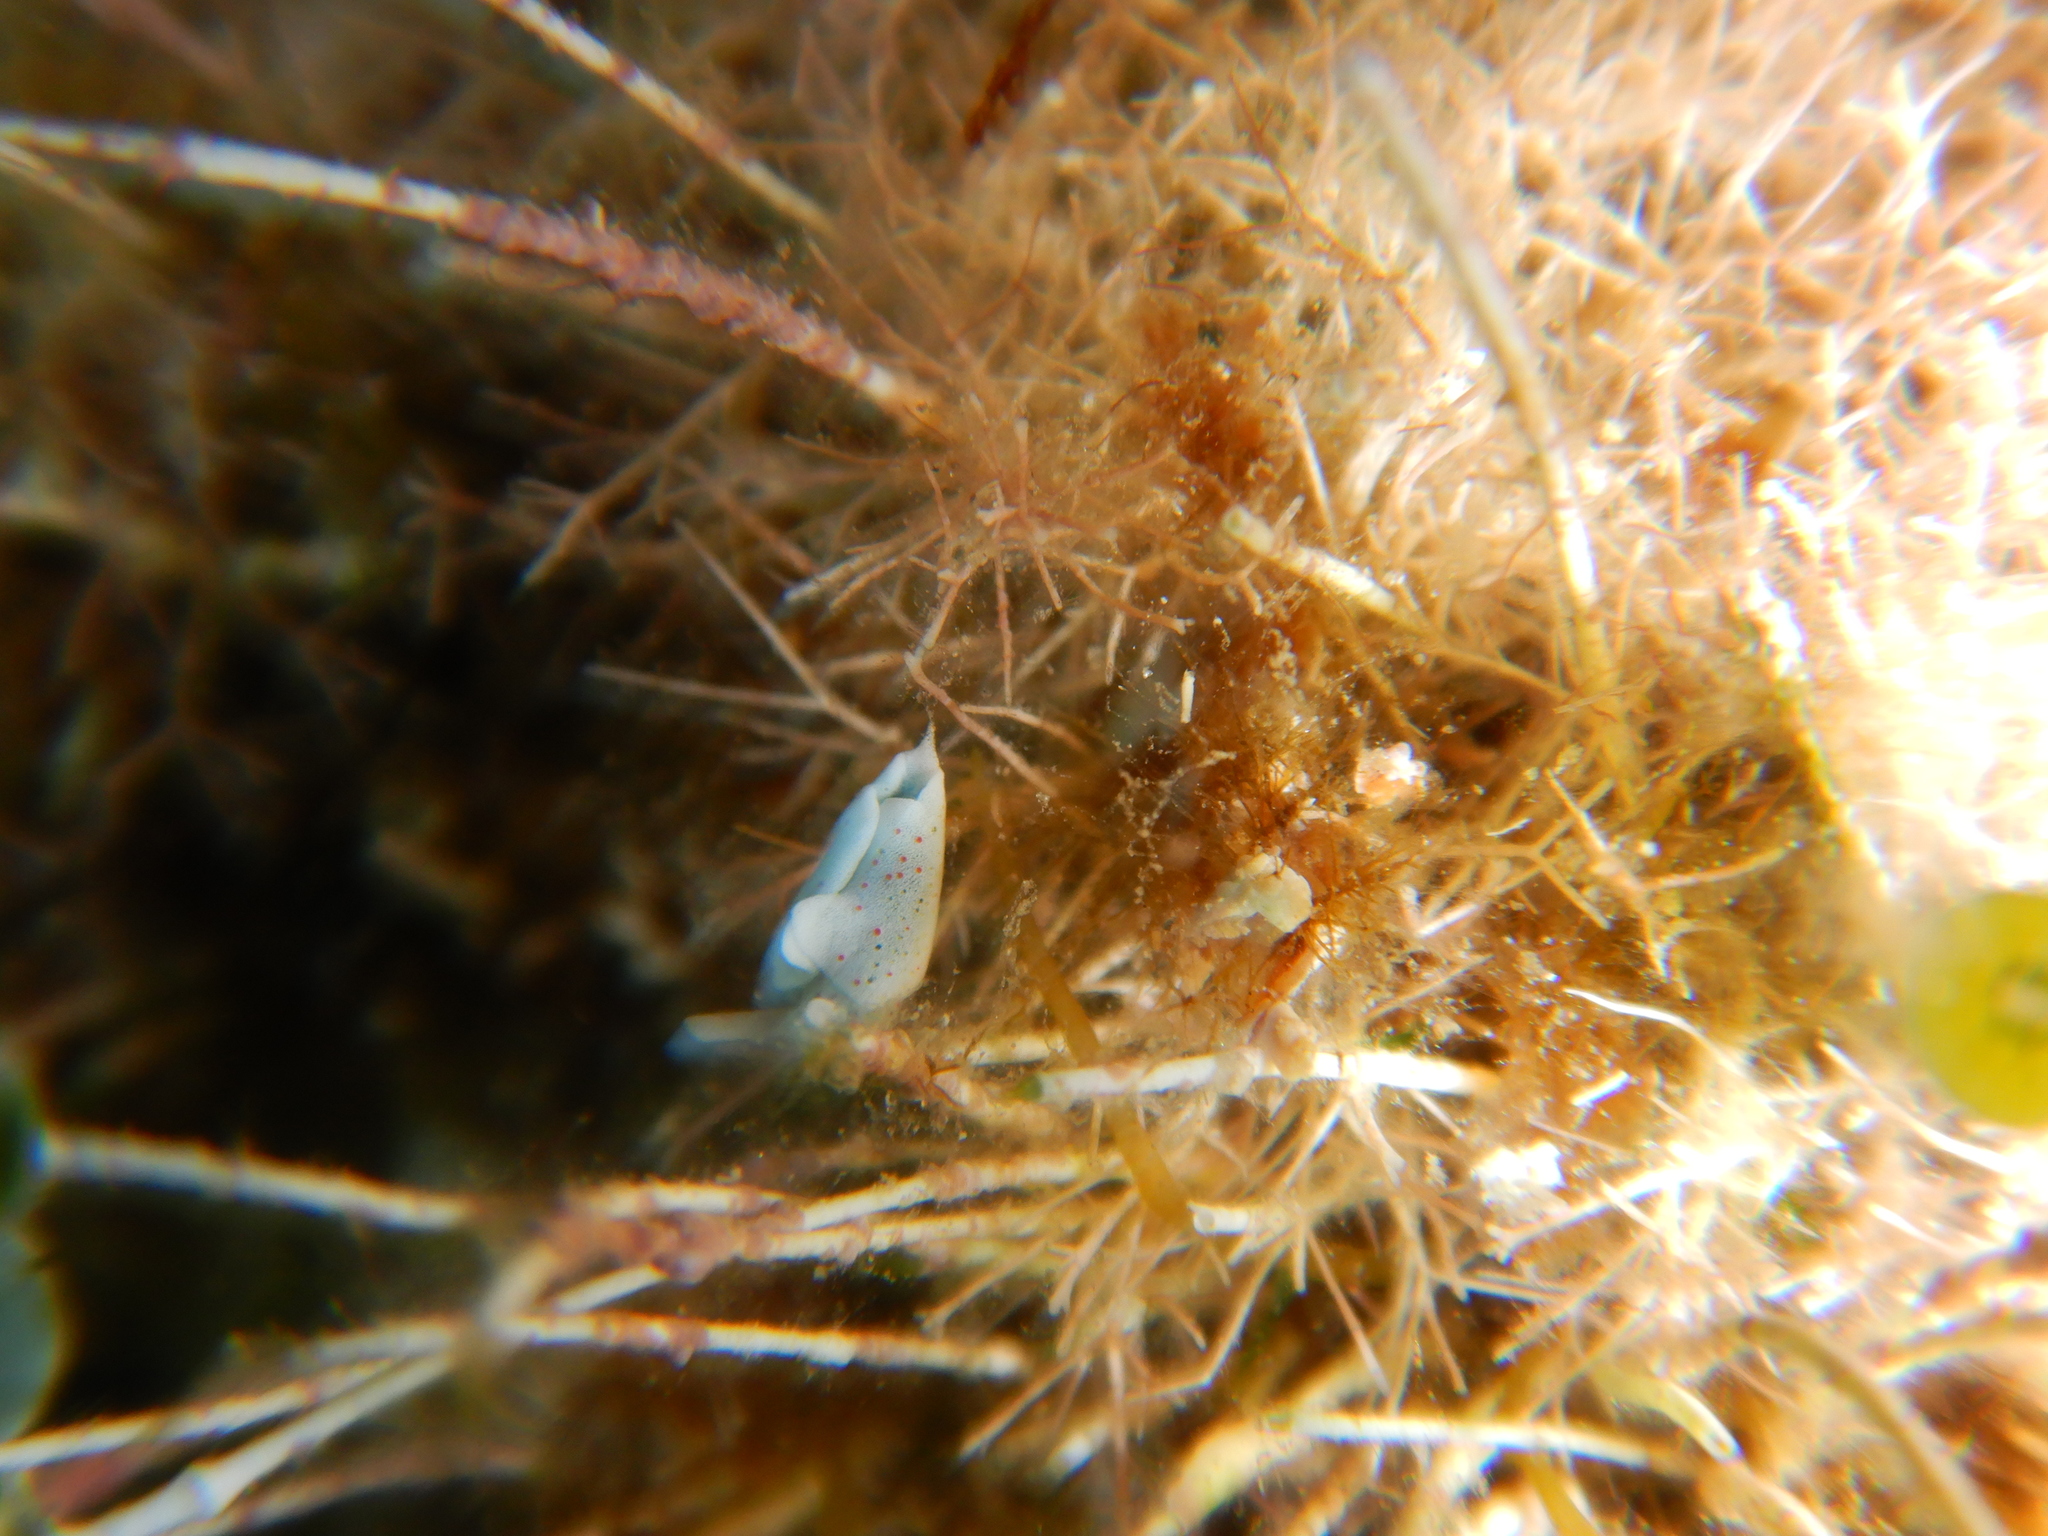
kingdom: Animalia
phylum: Mollusca
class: Gastropoda
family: Plakobranchidae
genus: Elysia
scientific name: Elysia timida
